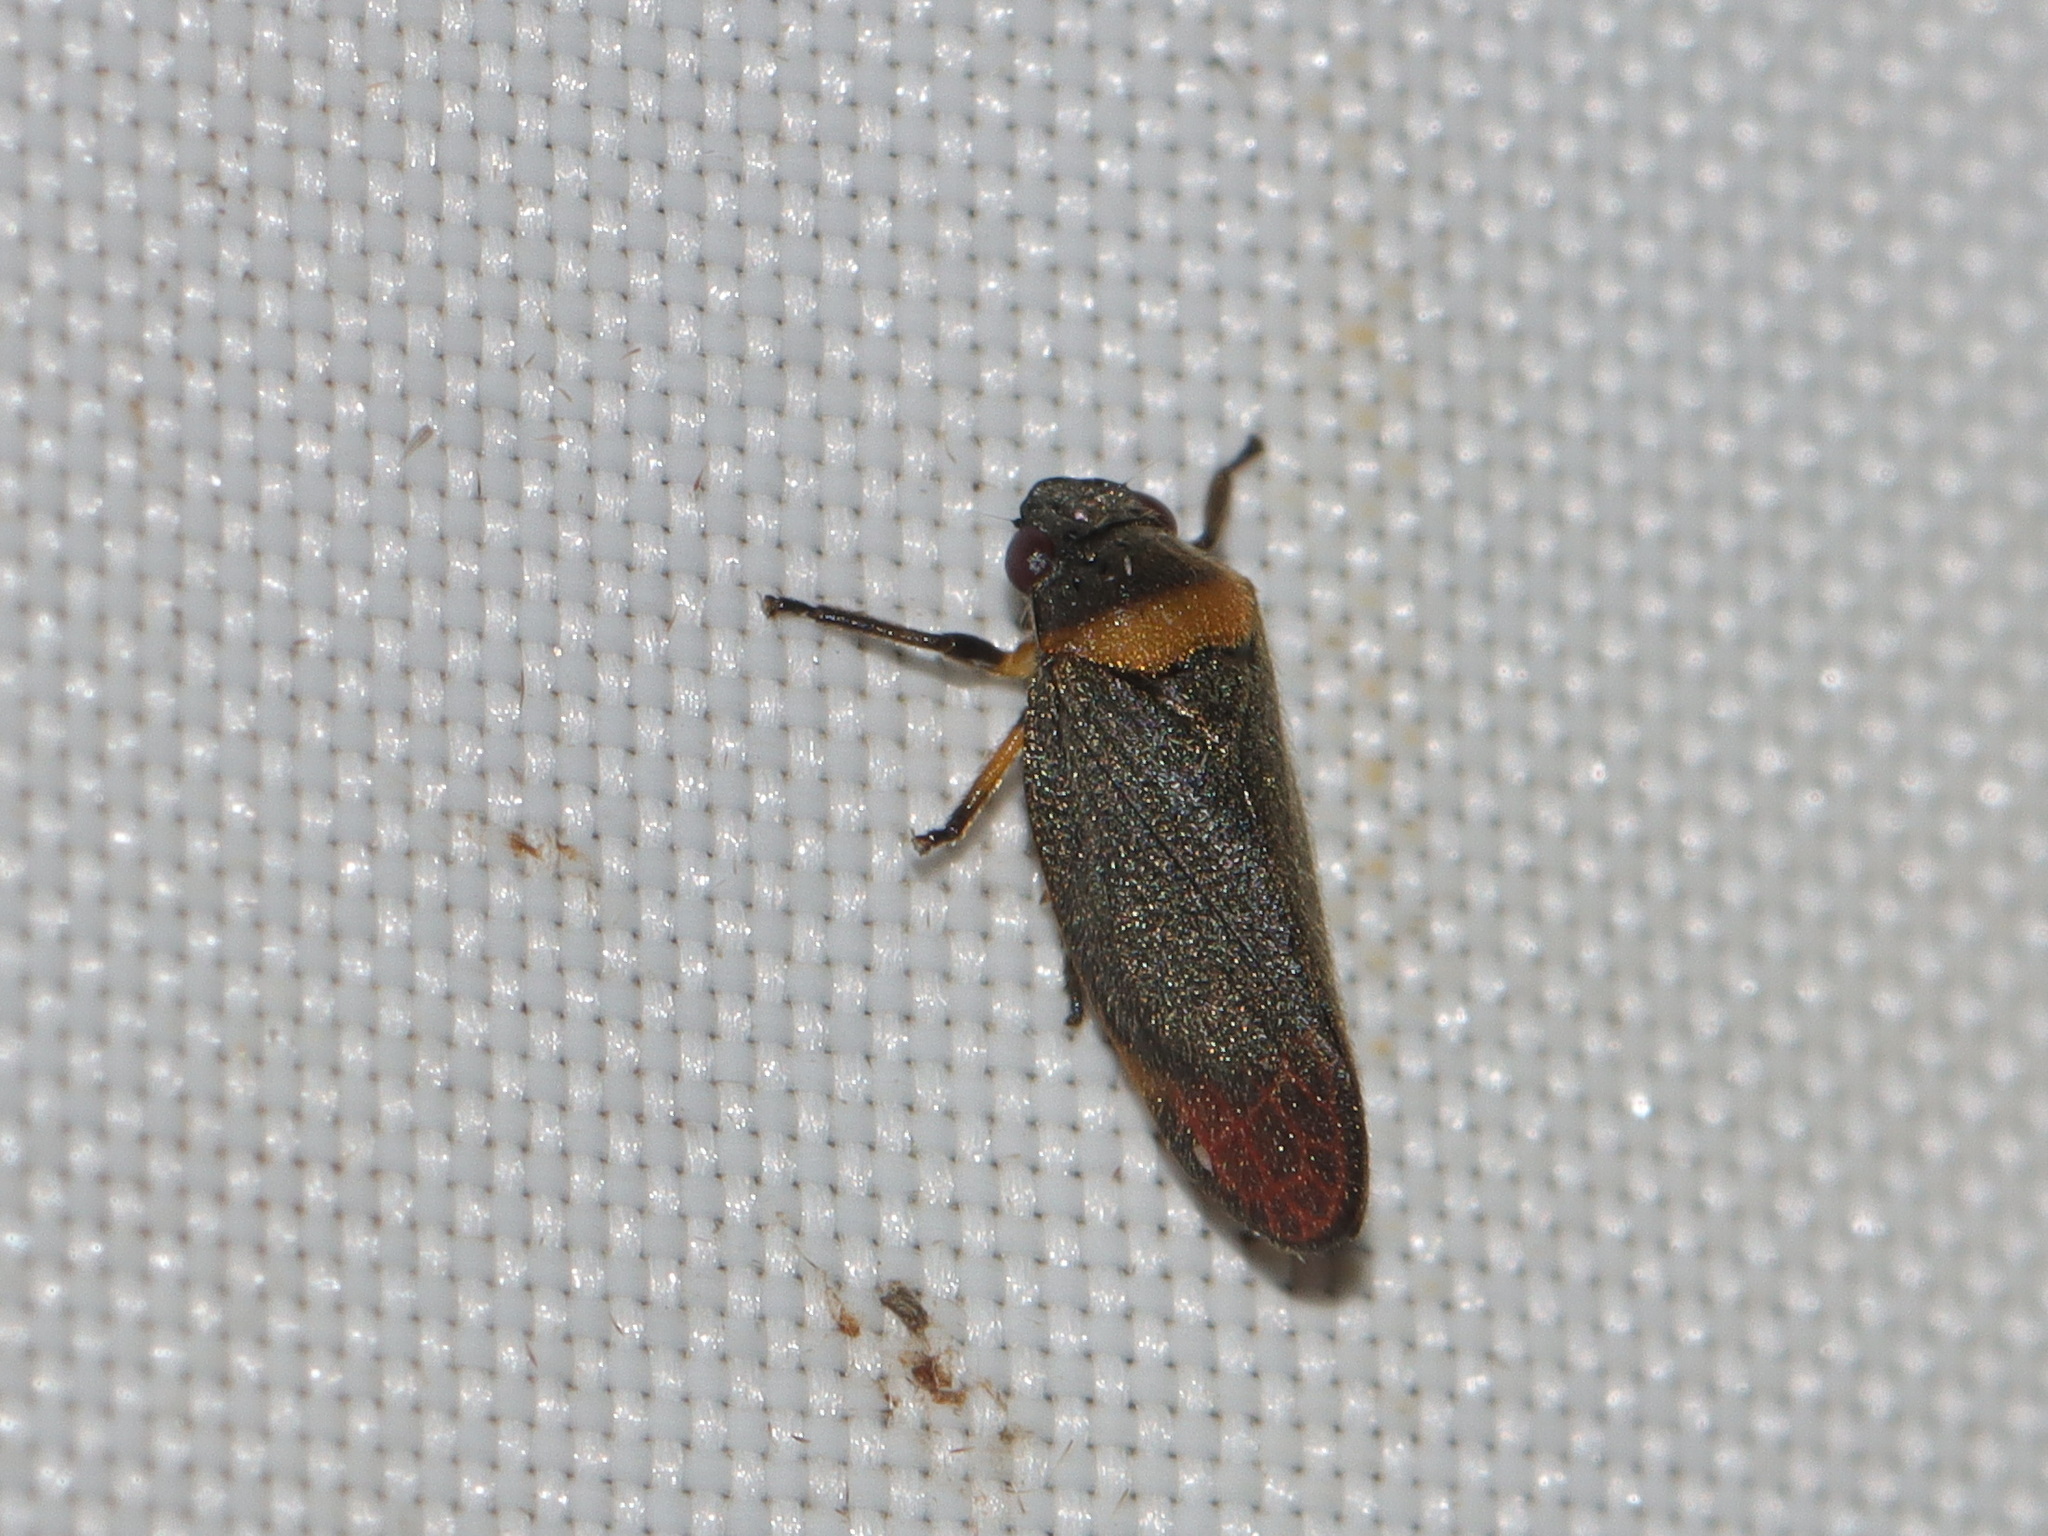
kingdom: Animalia
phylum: Arthropoda
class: Insecta
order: Hemiptera
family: Cercopidae
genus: Eoscarta
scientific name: Eoscarta roseinervis
